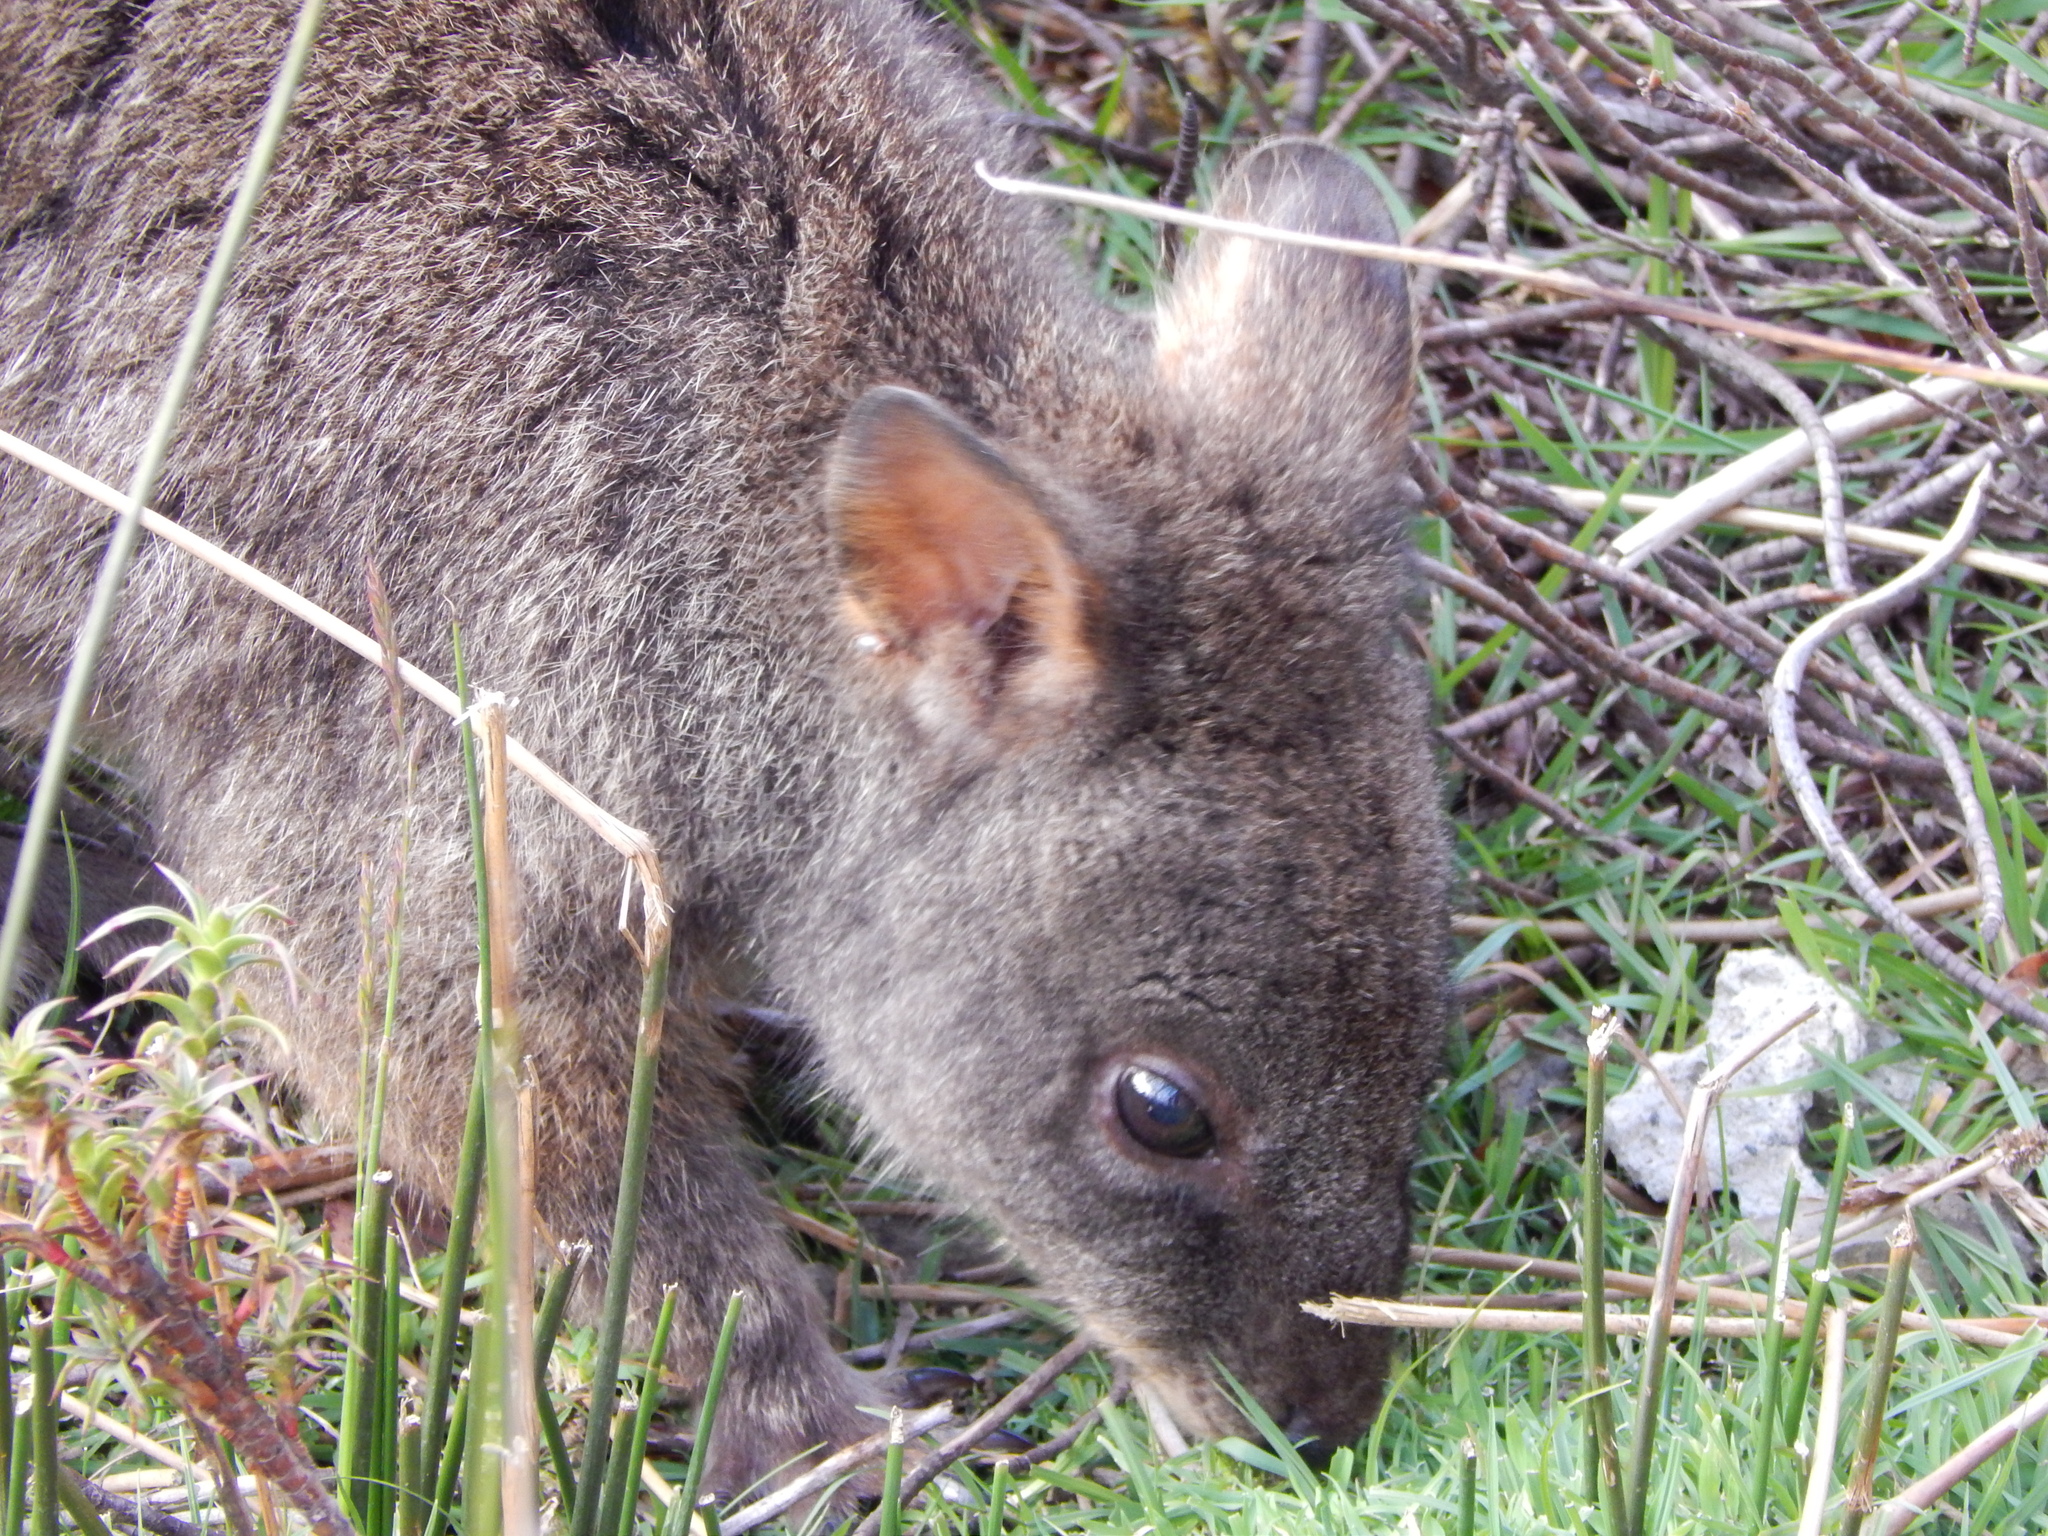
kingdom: Animalia
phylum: Chordata
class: Mammalia
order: Diprotodontia
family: Macropodidae
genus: Thylogale
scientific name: Thylogale billardierii
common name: Tasmanian pademelon
